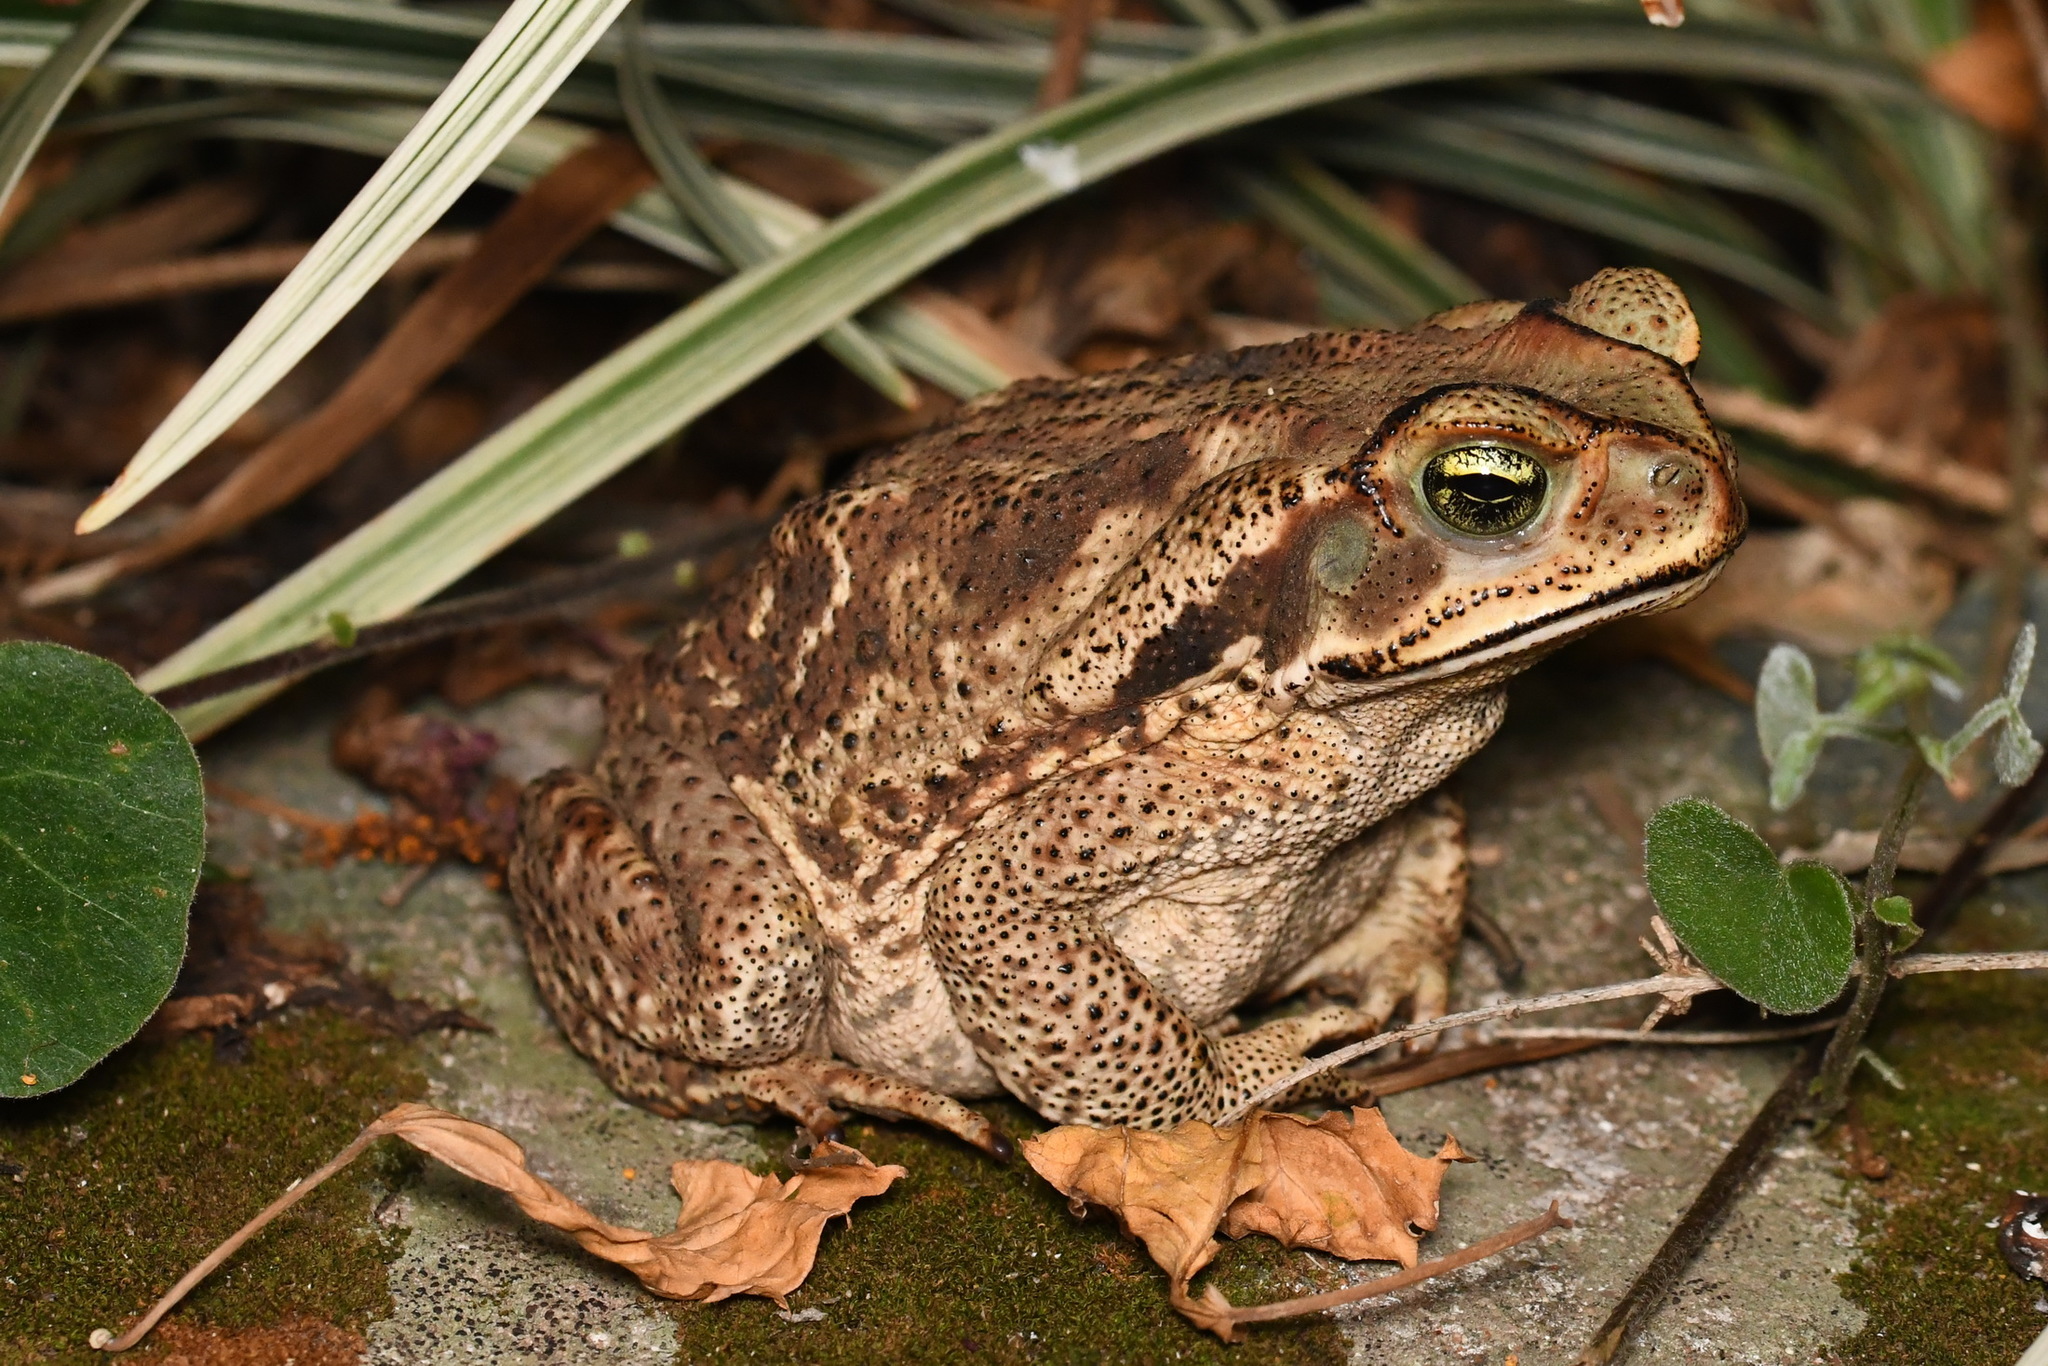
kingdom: Animalia
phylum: Chordata
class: Amphibia
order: Anura
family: Bufonidae
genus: Rhinella
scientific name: Rhinella diptycha
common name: Cope's toad
